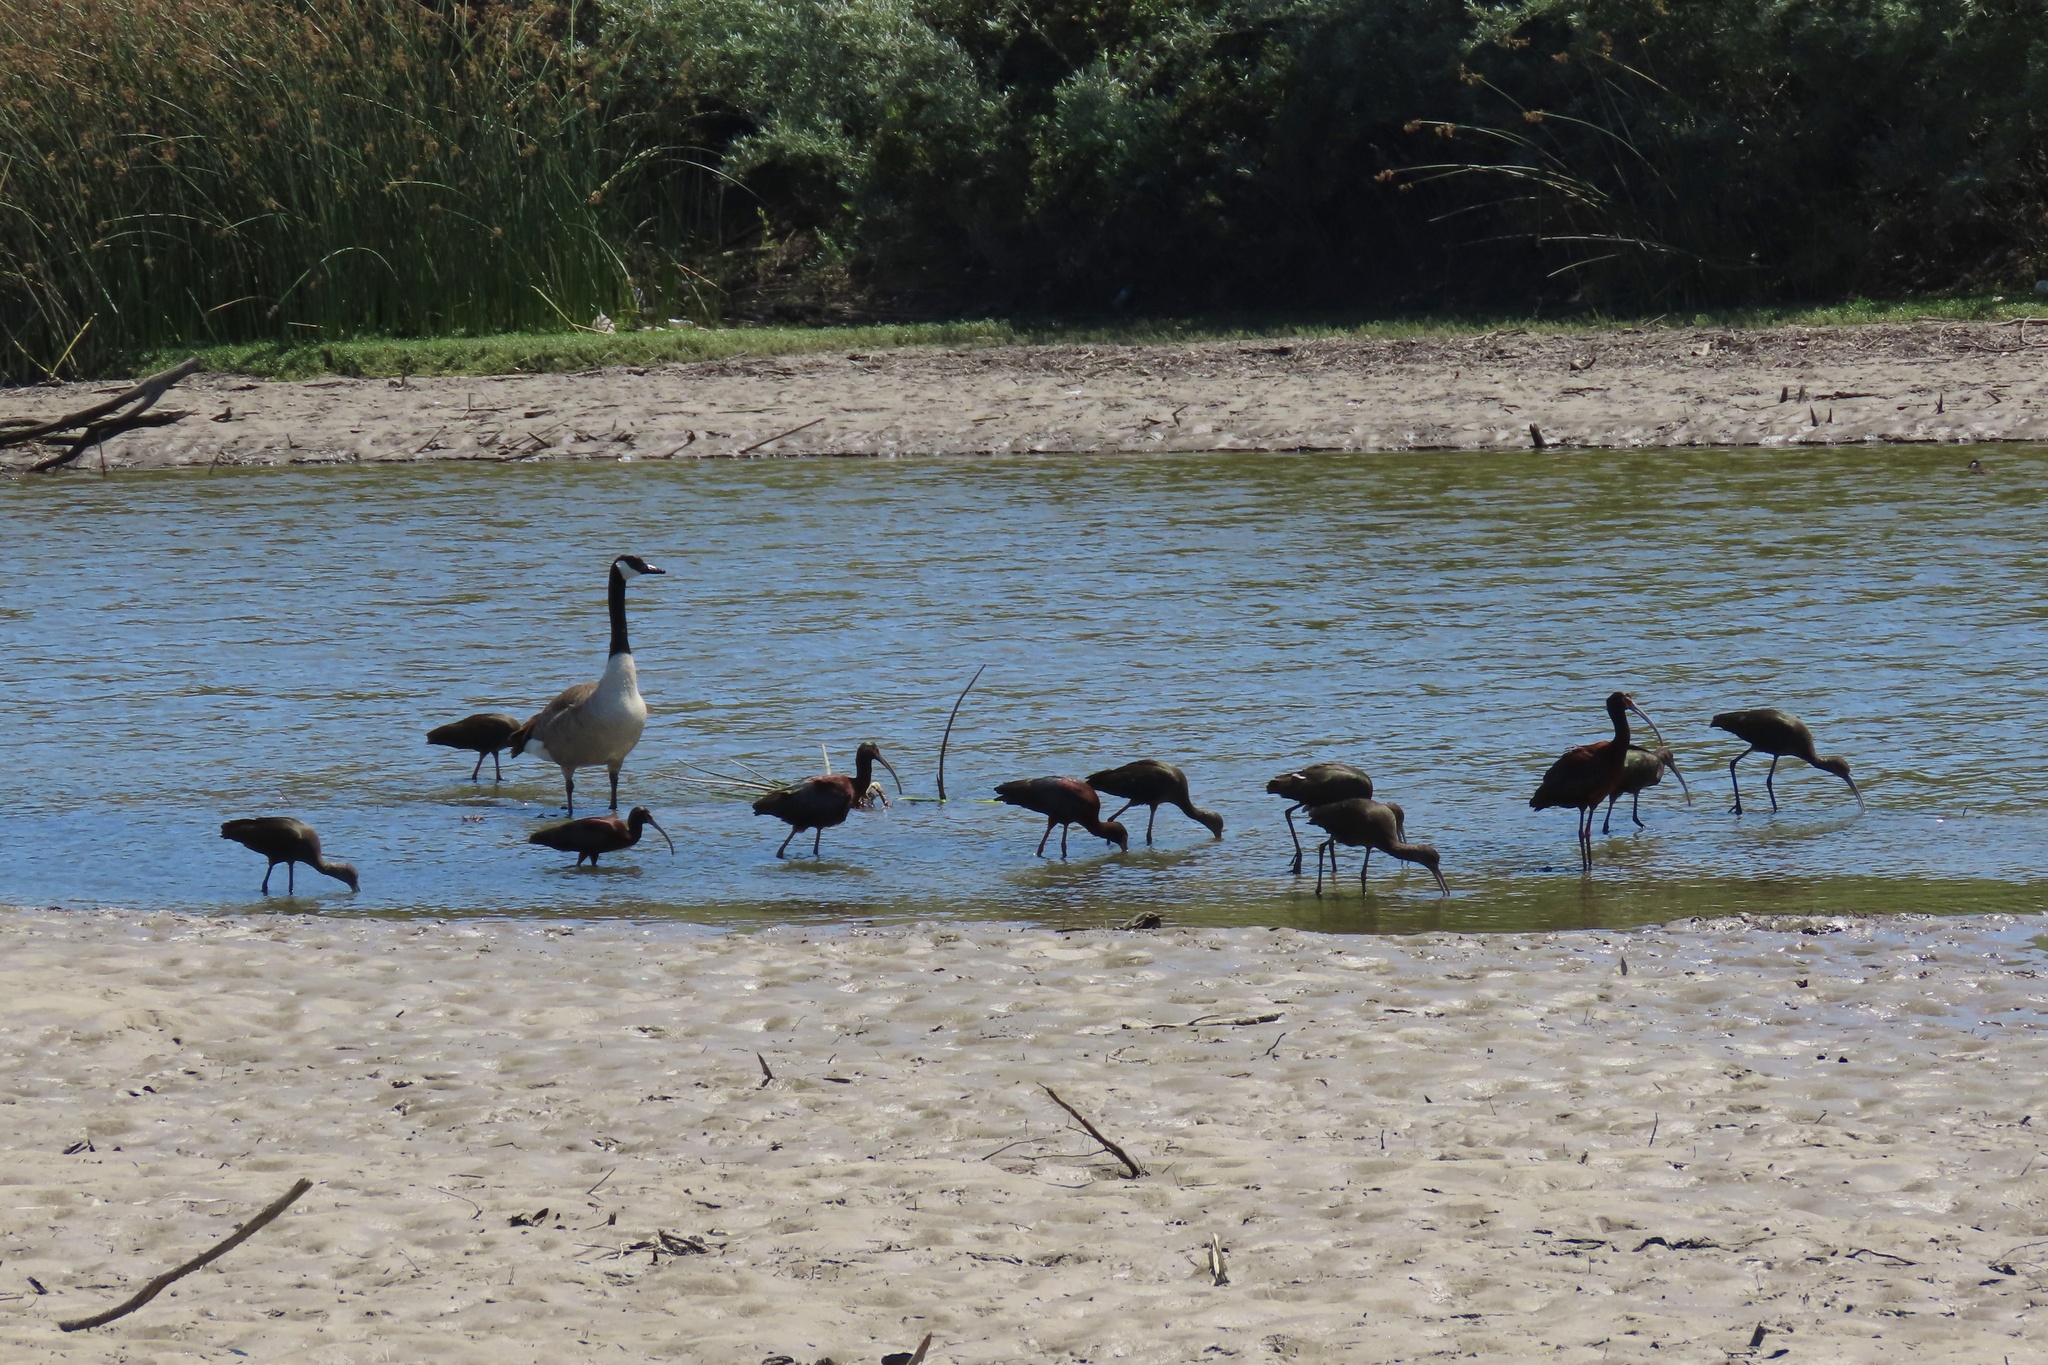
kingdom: Animalia
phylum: Chordata
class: Aves
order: Anseriformes
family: Anatidae
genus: Branta
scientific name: Branta canadensis
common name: Canada goose
